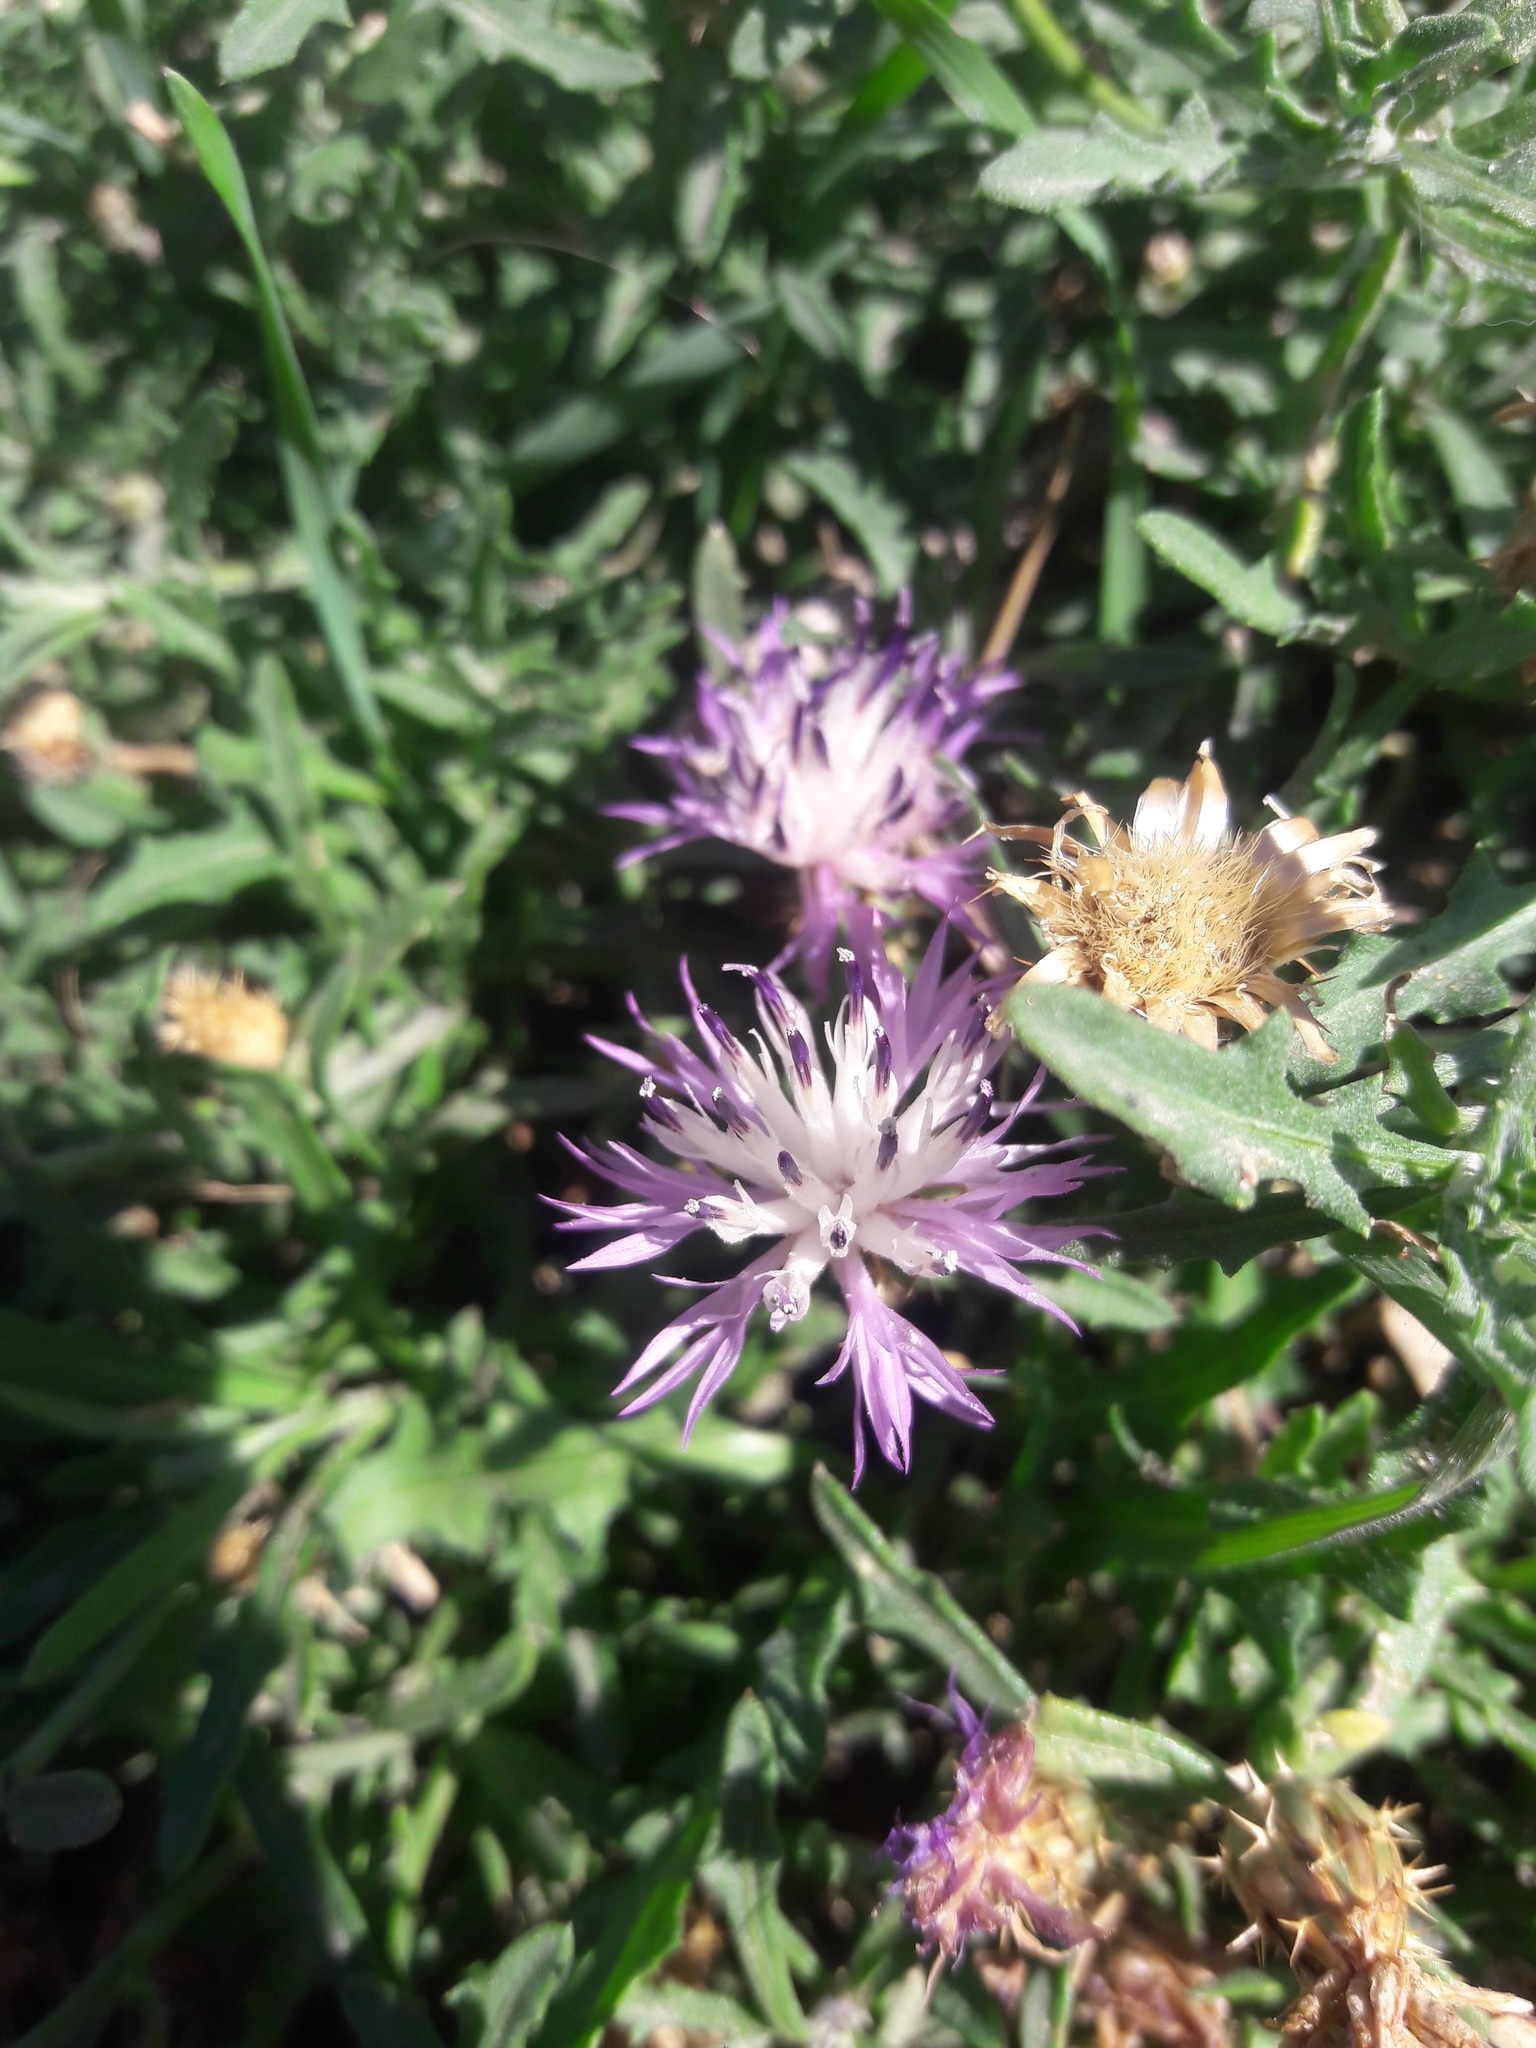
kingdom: Plantae
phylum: Tracheophyta
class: Magnoliopsida
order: Asterales
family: Asteraceae
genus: Centaurea
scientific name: Centaurea aspera
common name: Rough star-thistle
